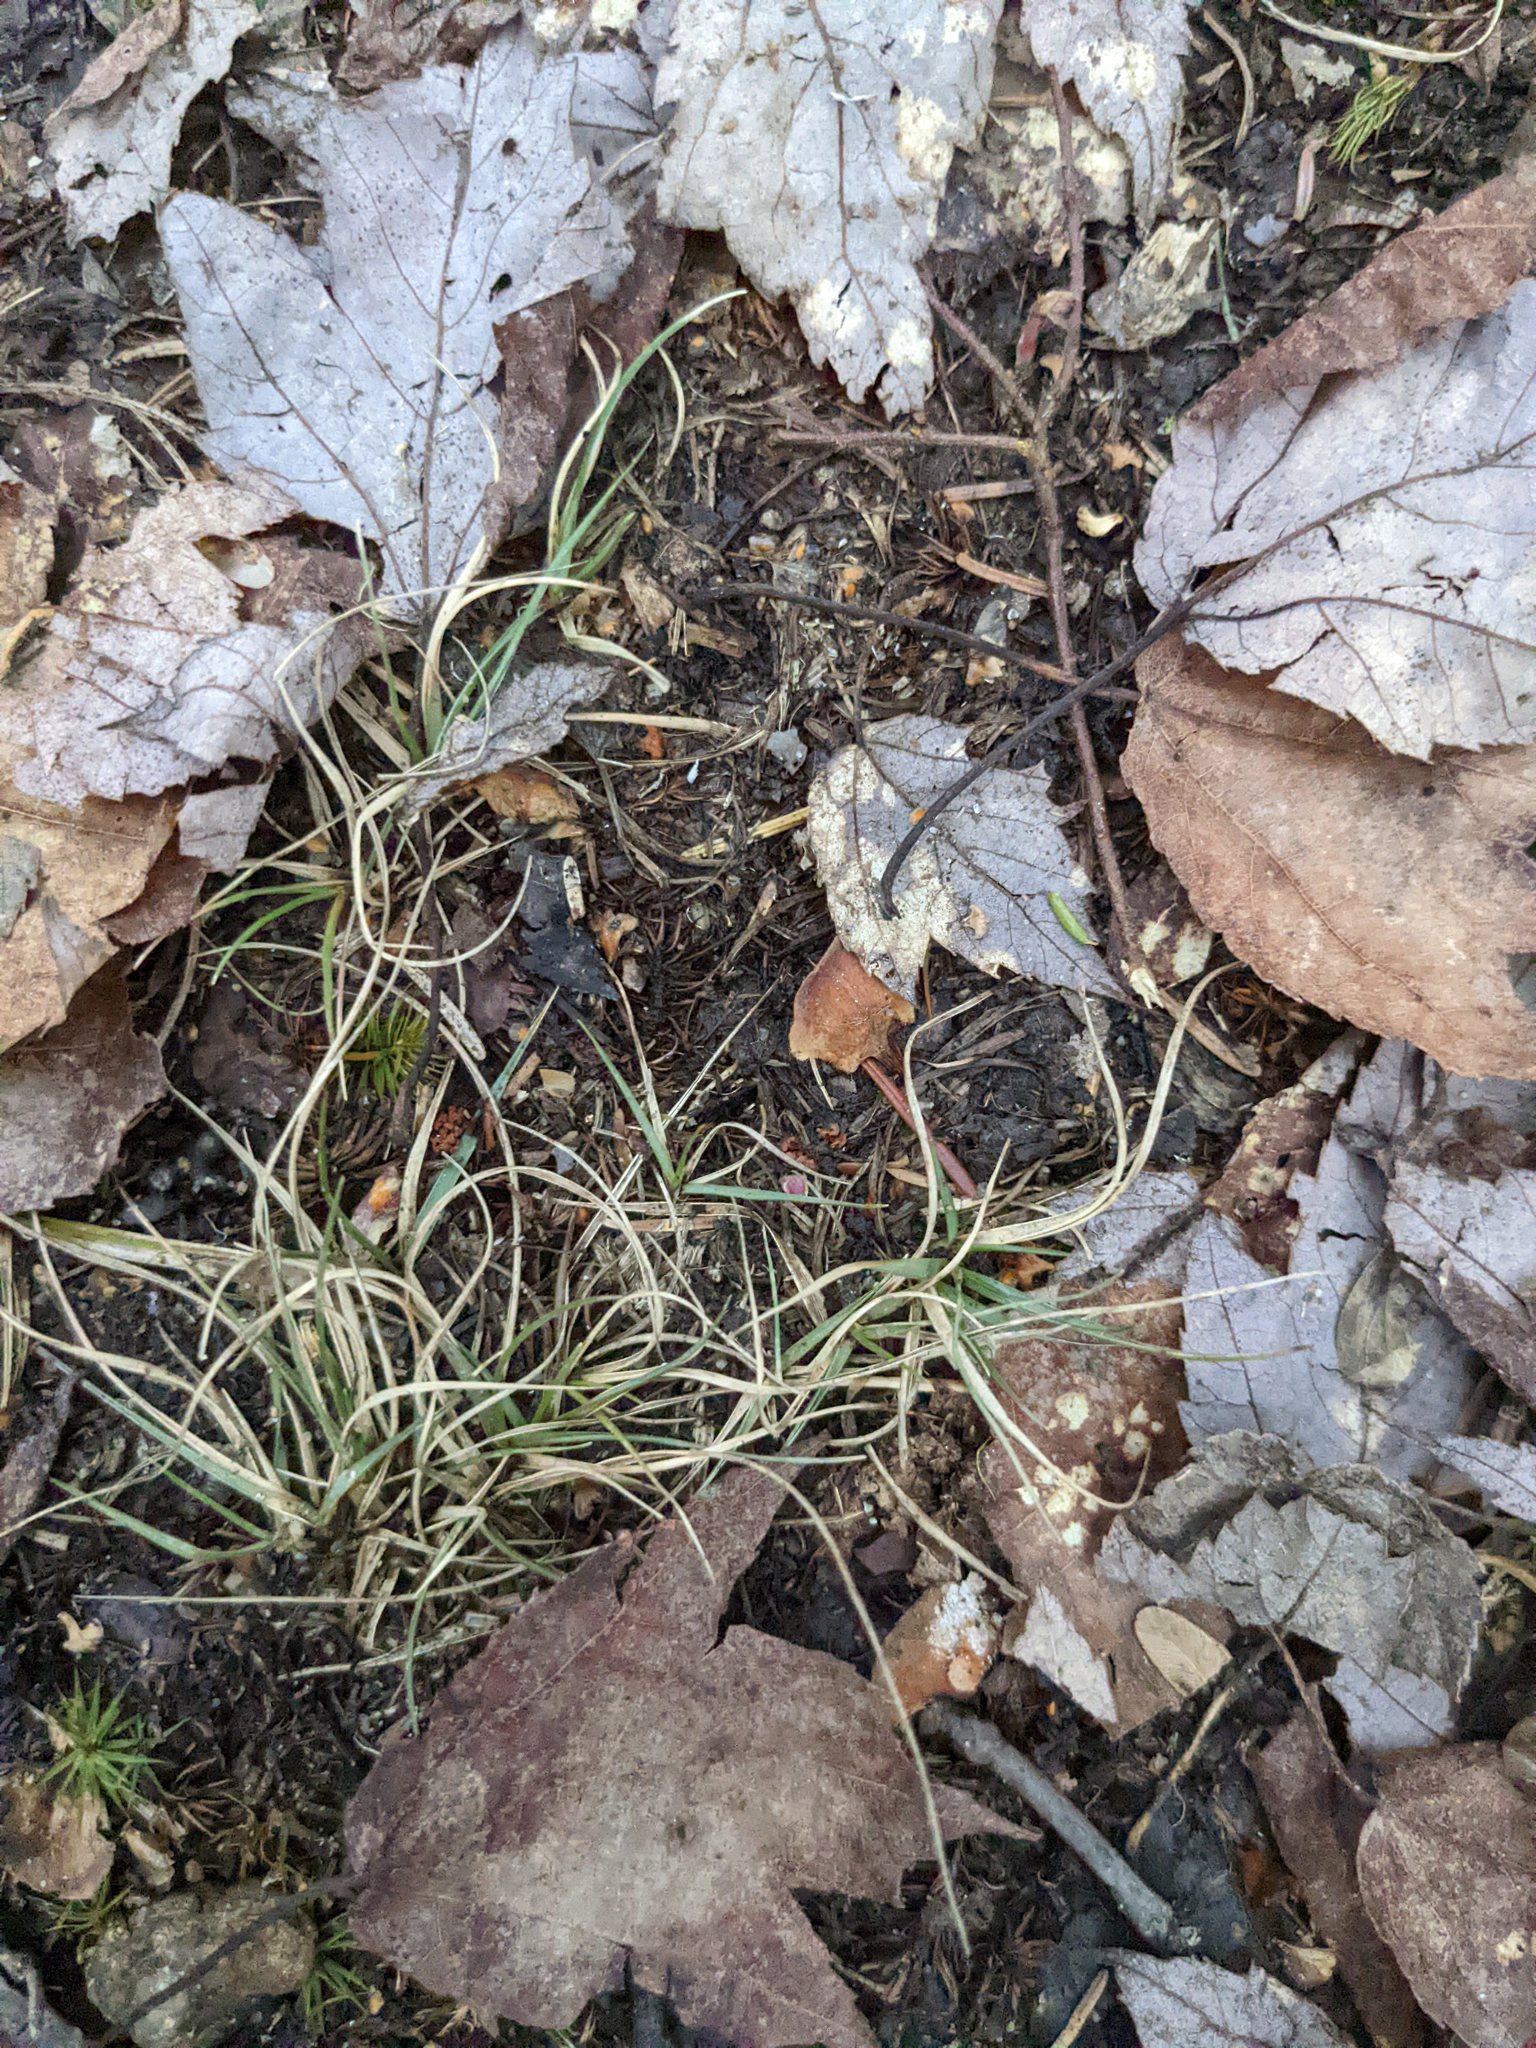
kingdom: Plantae
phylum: Tracheophyta
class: Liliopsida
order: Poales
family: Poaceae
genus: Danthonia
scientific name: Danthonia spicata
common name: Common wild oatgrass
